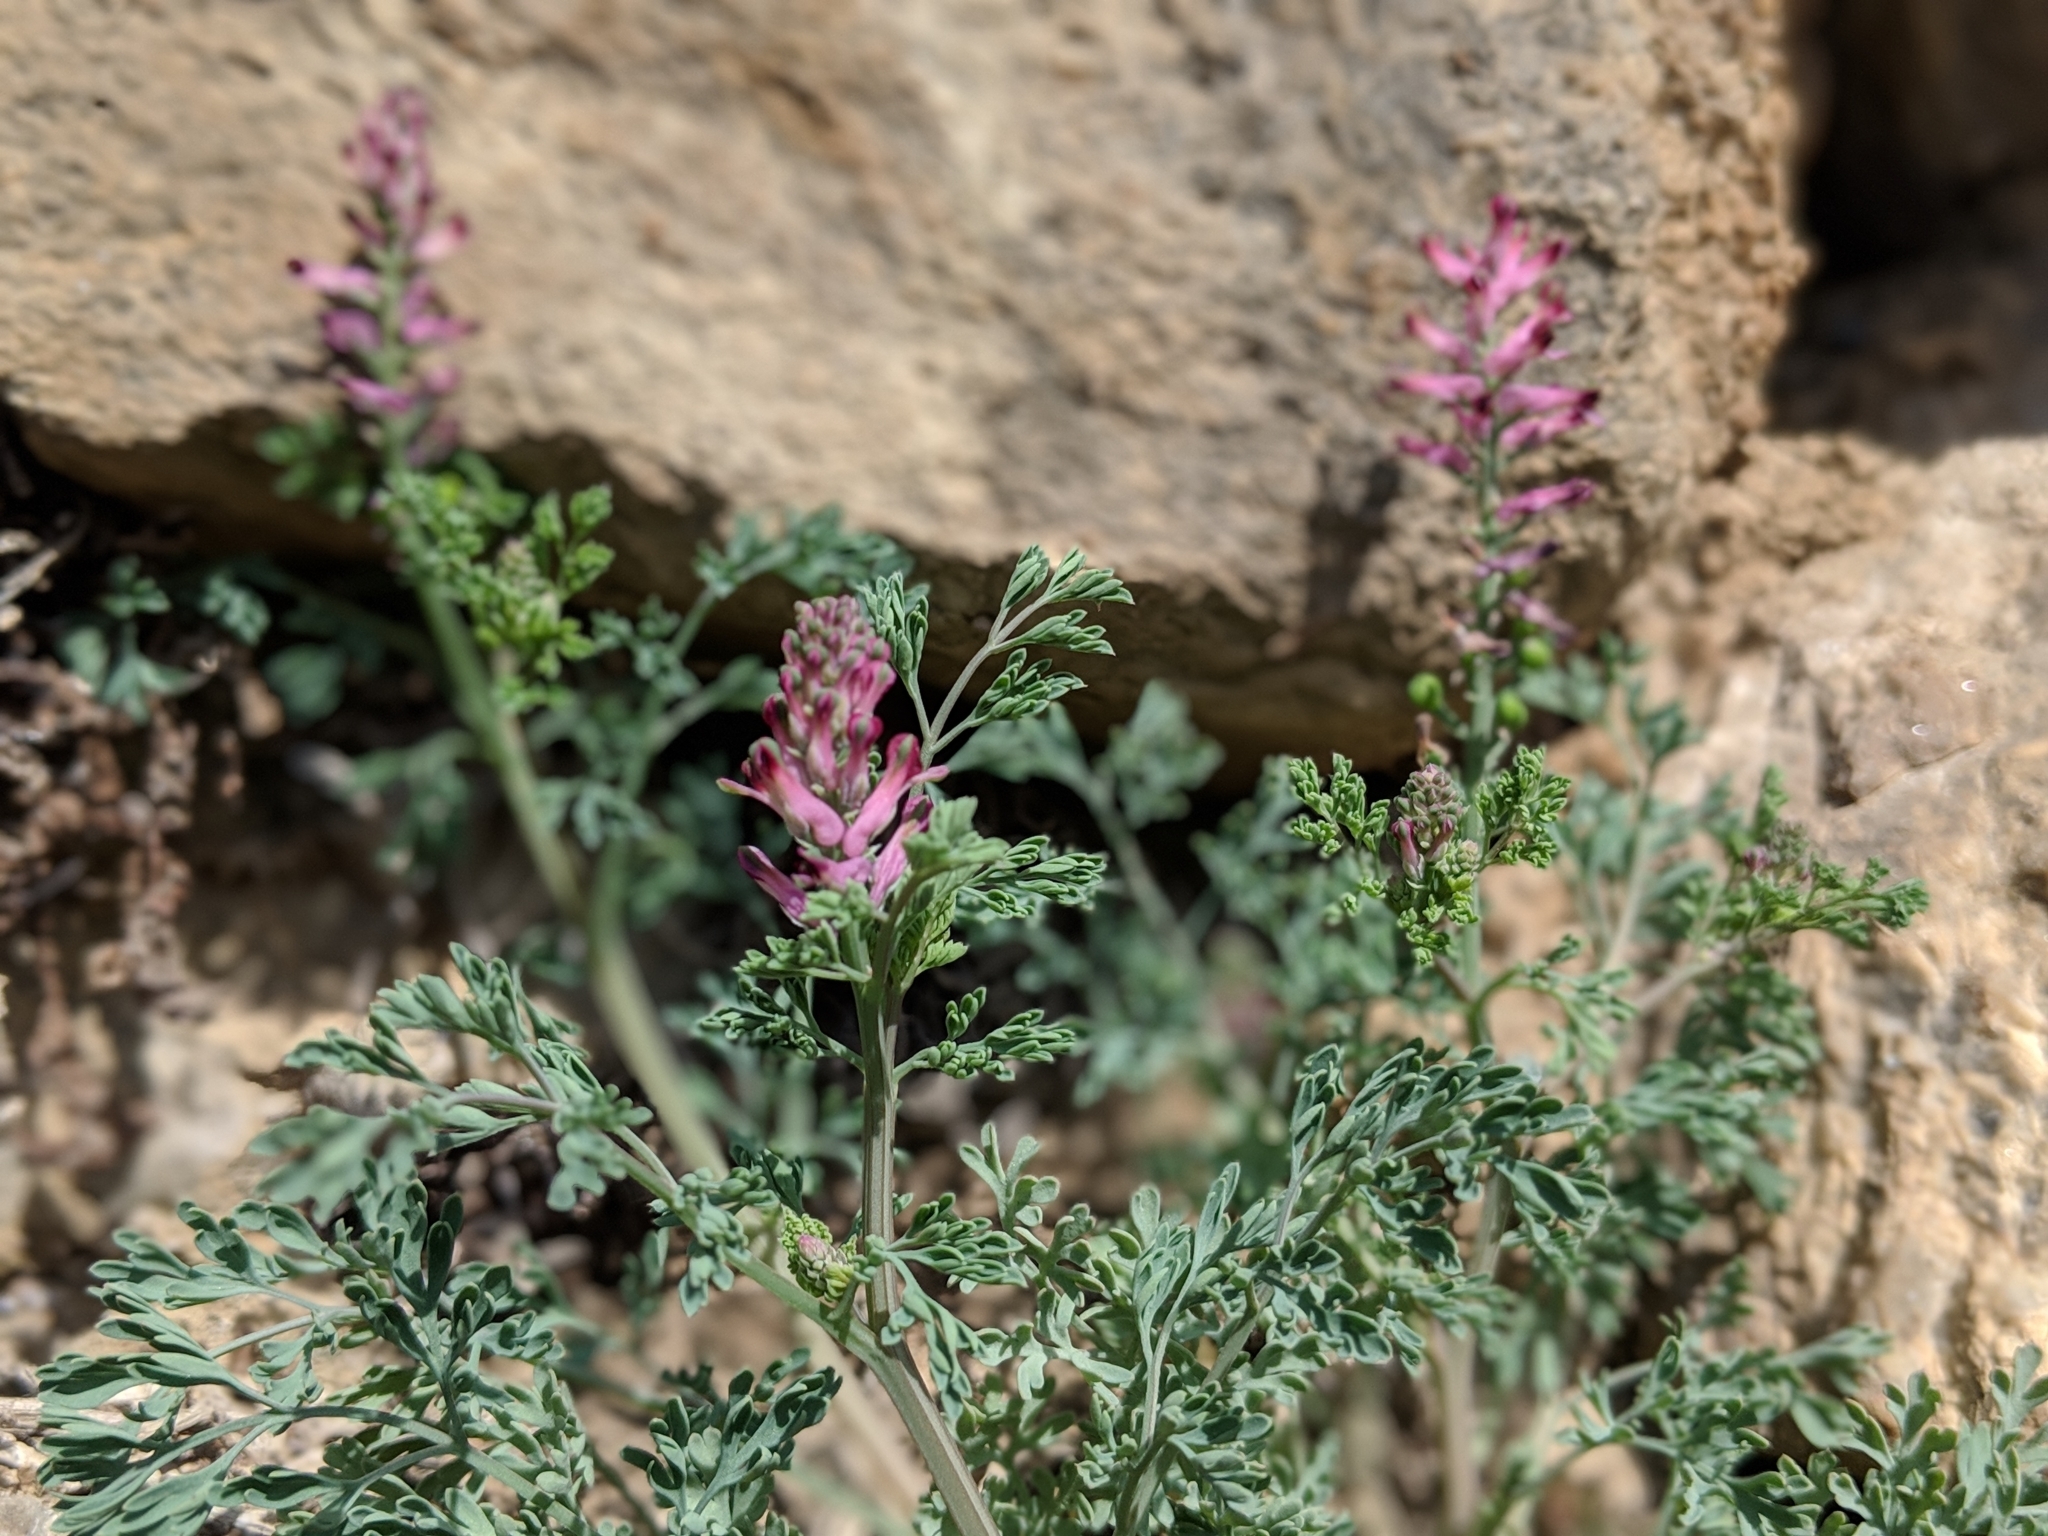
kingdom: Plantae
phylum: Tracheophyta
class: Magnoliopsida
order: Ranunculales
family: Papaveraceae
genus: Fumaria
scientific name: Fumaria officinalis
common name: Common fumitory
